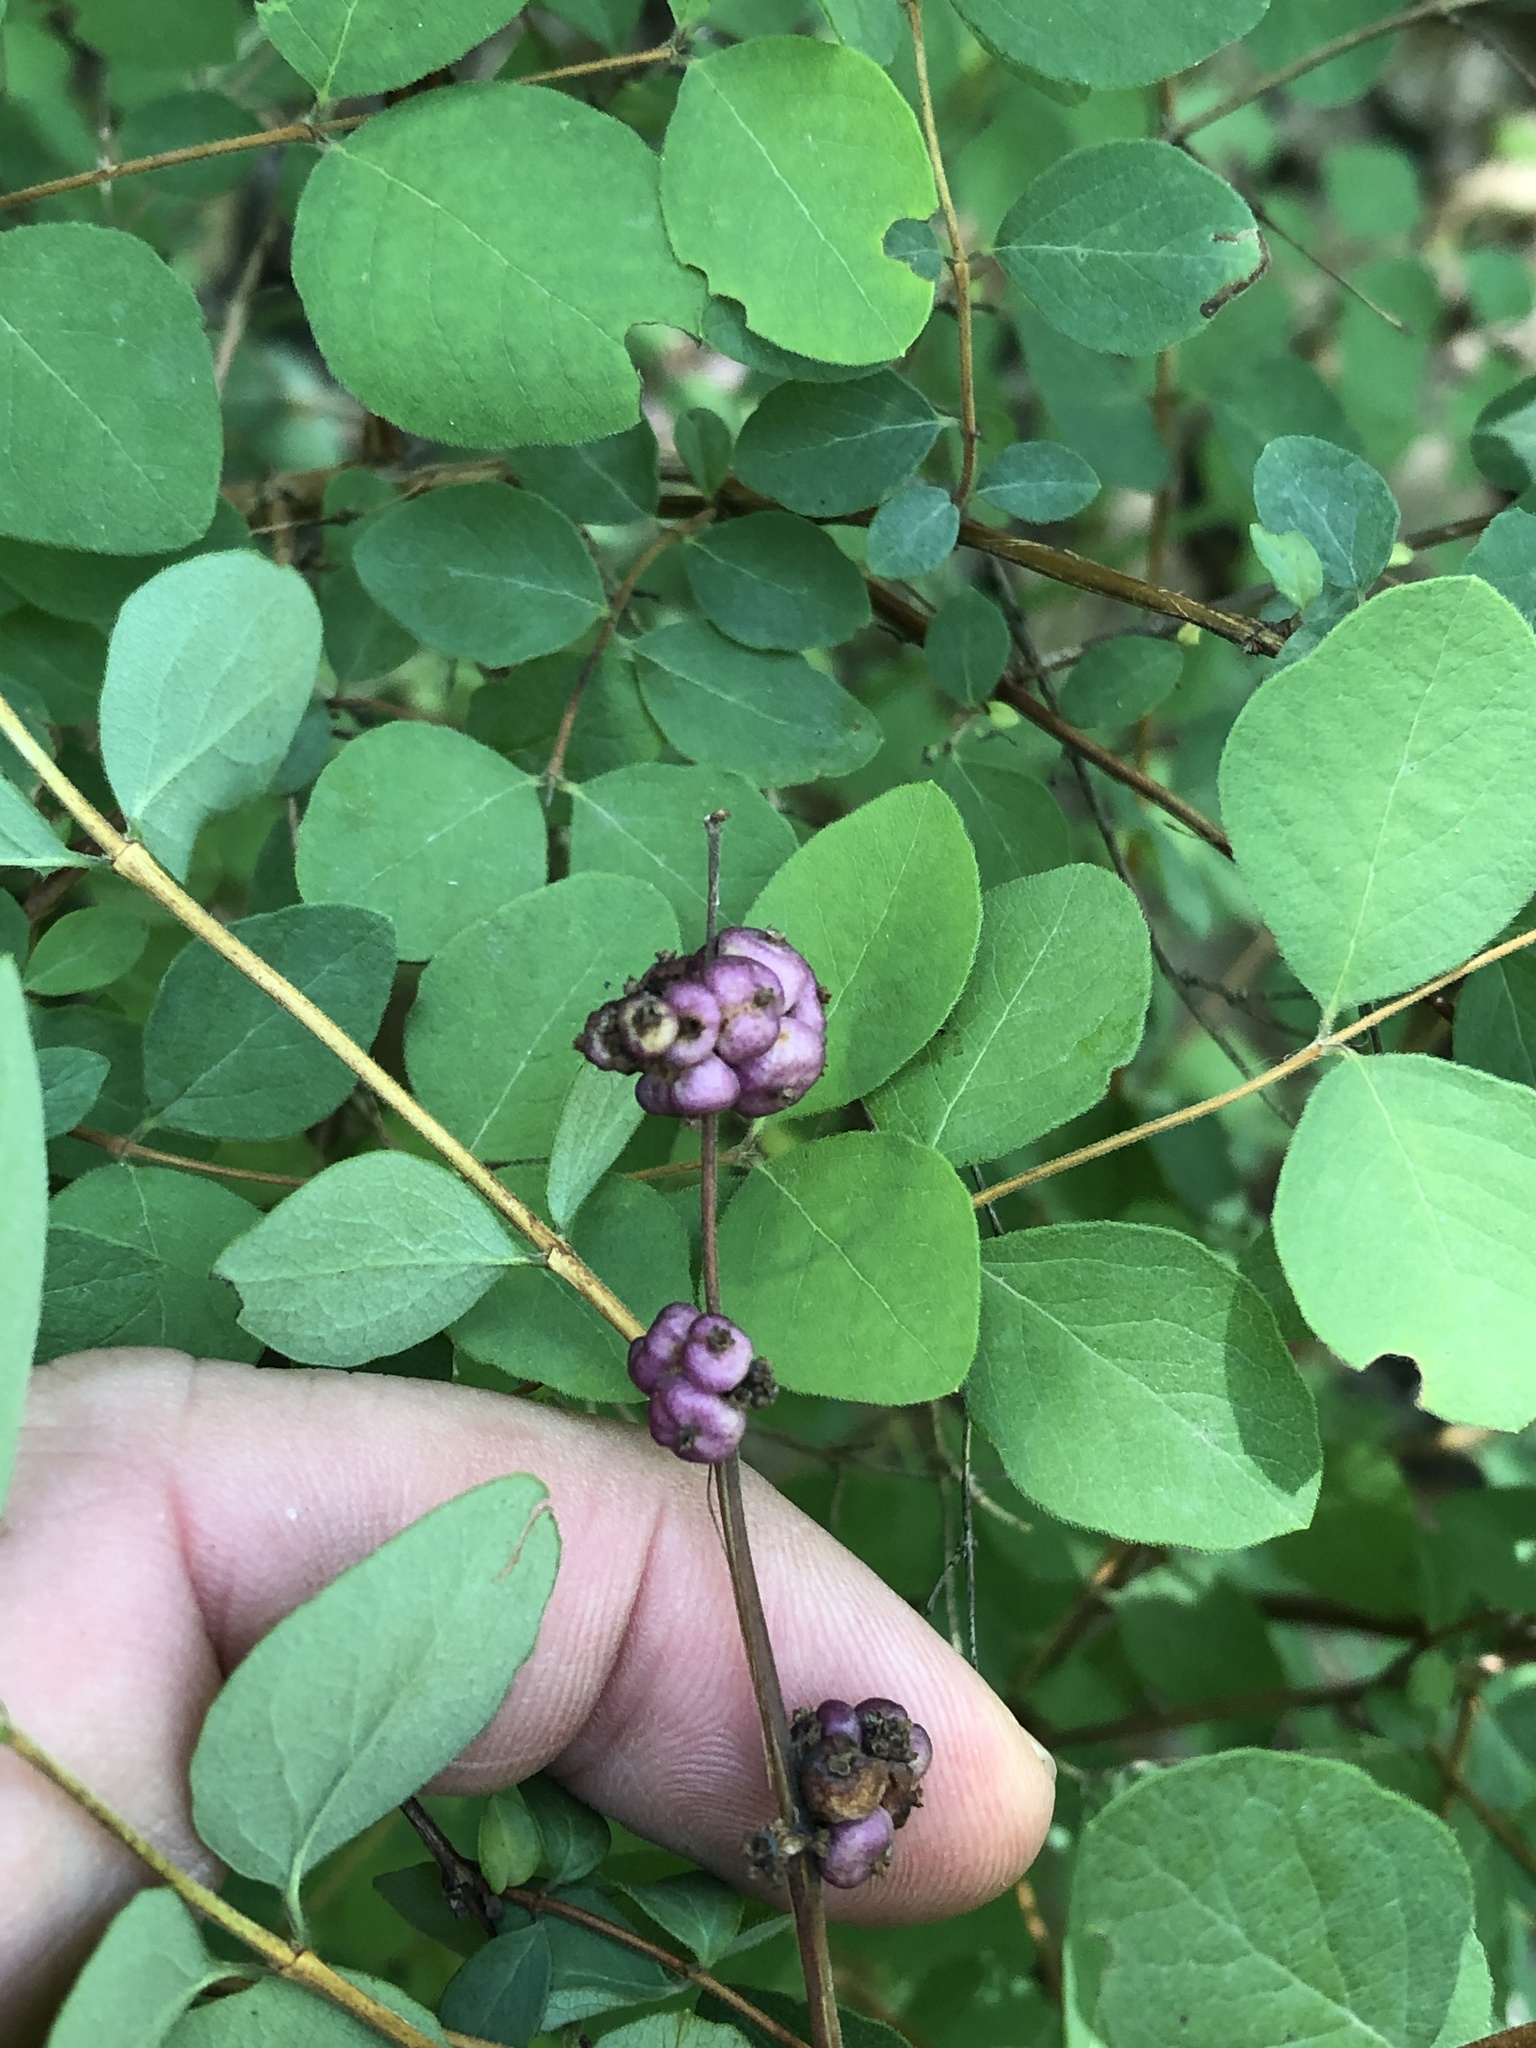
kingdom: Plantae
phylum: Tracheophyta
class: Magnoliopsida
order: Dipsacales
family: Caprifoliaceae
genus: Symphoricarpos
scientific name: Symphoricarpos orbiculatus
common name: Coralberry
